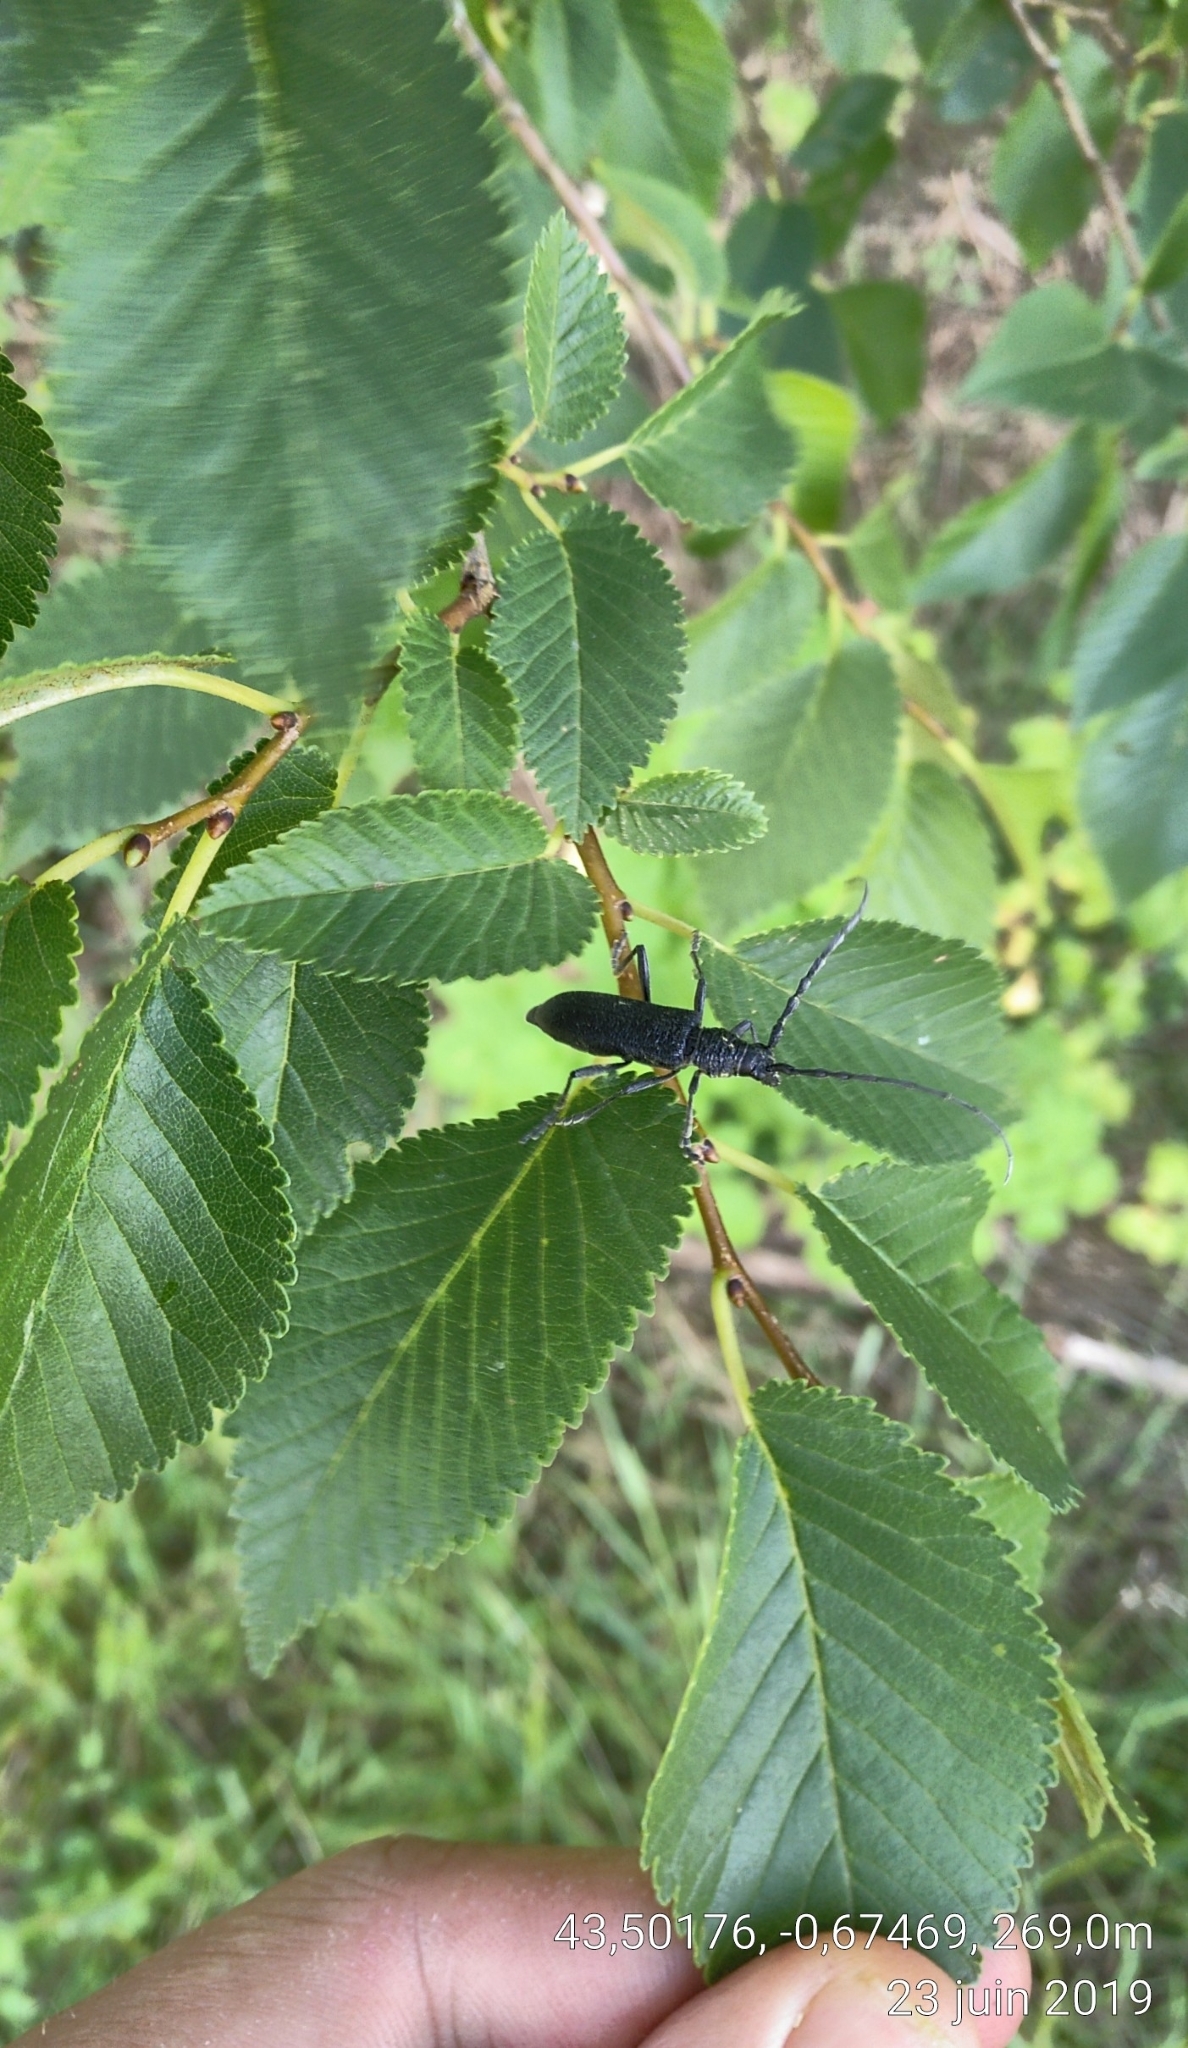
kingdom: Animalia
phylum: Arthropoda
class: Insecta
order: Coleoptera
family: Cerambycidae
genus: Cerambyx
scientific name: Cerambyx scopolii
